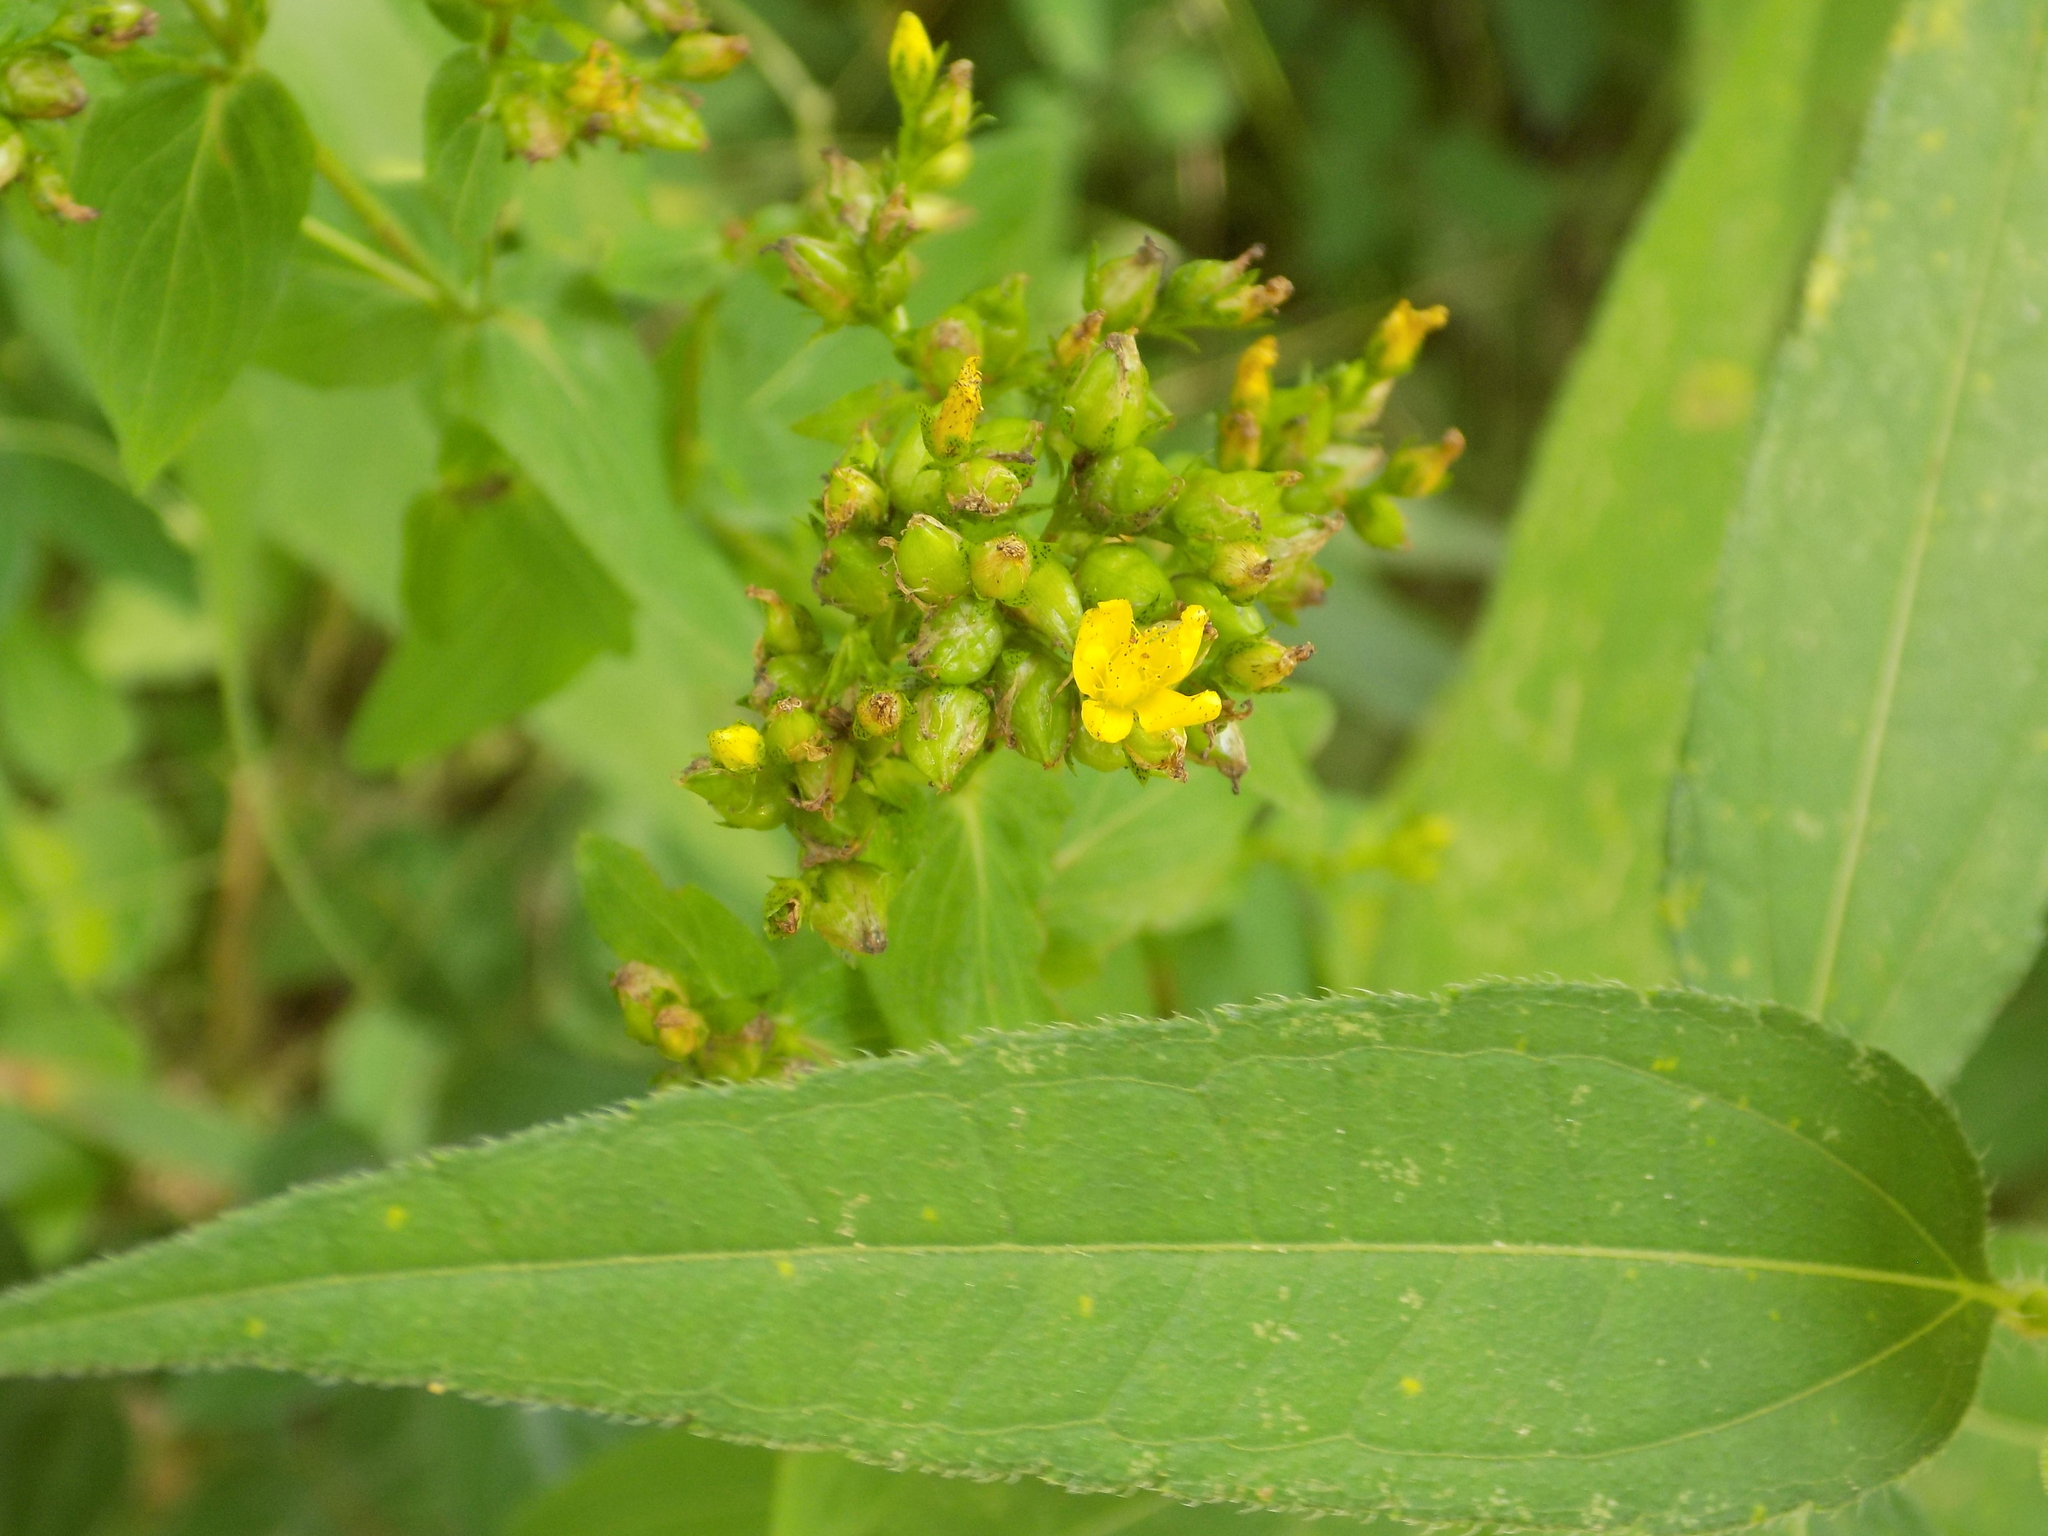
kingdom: Plantae
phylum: Tracheophyta
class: Magnoliopsida
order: Malpighiales
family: Hypericaceae
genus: Hypericum
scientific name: Hypericum punctatum
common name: Spotted st. john's-wort
